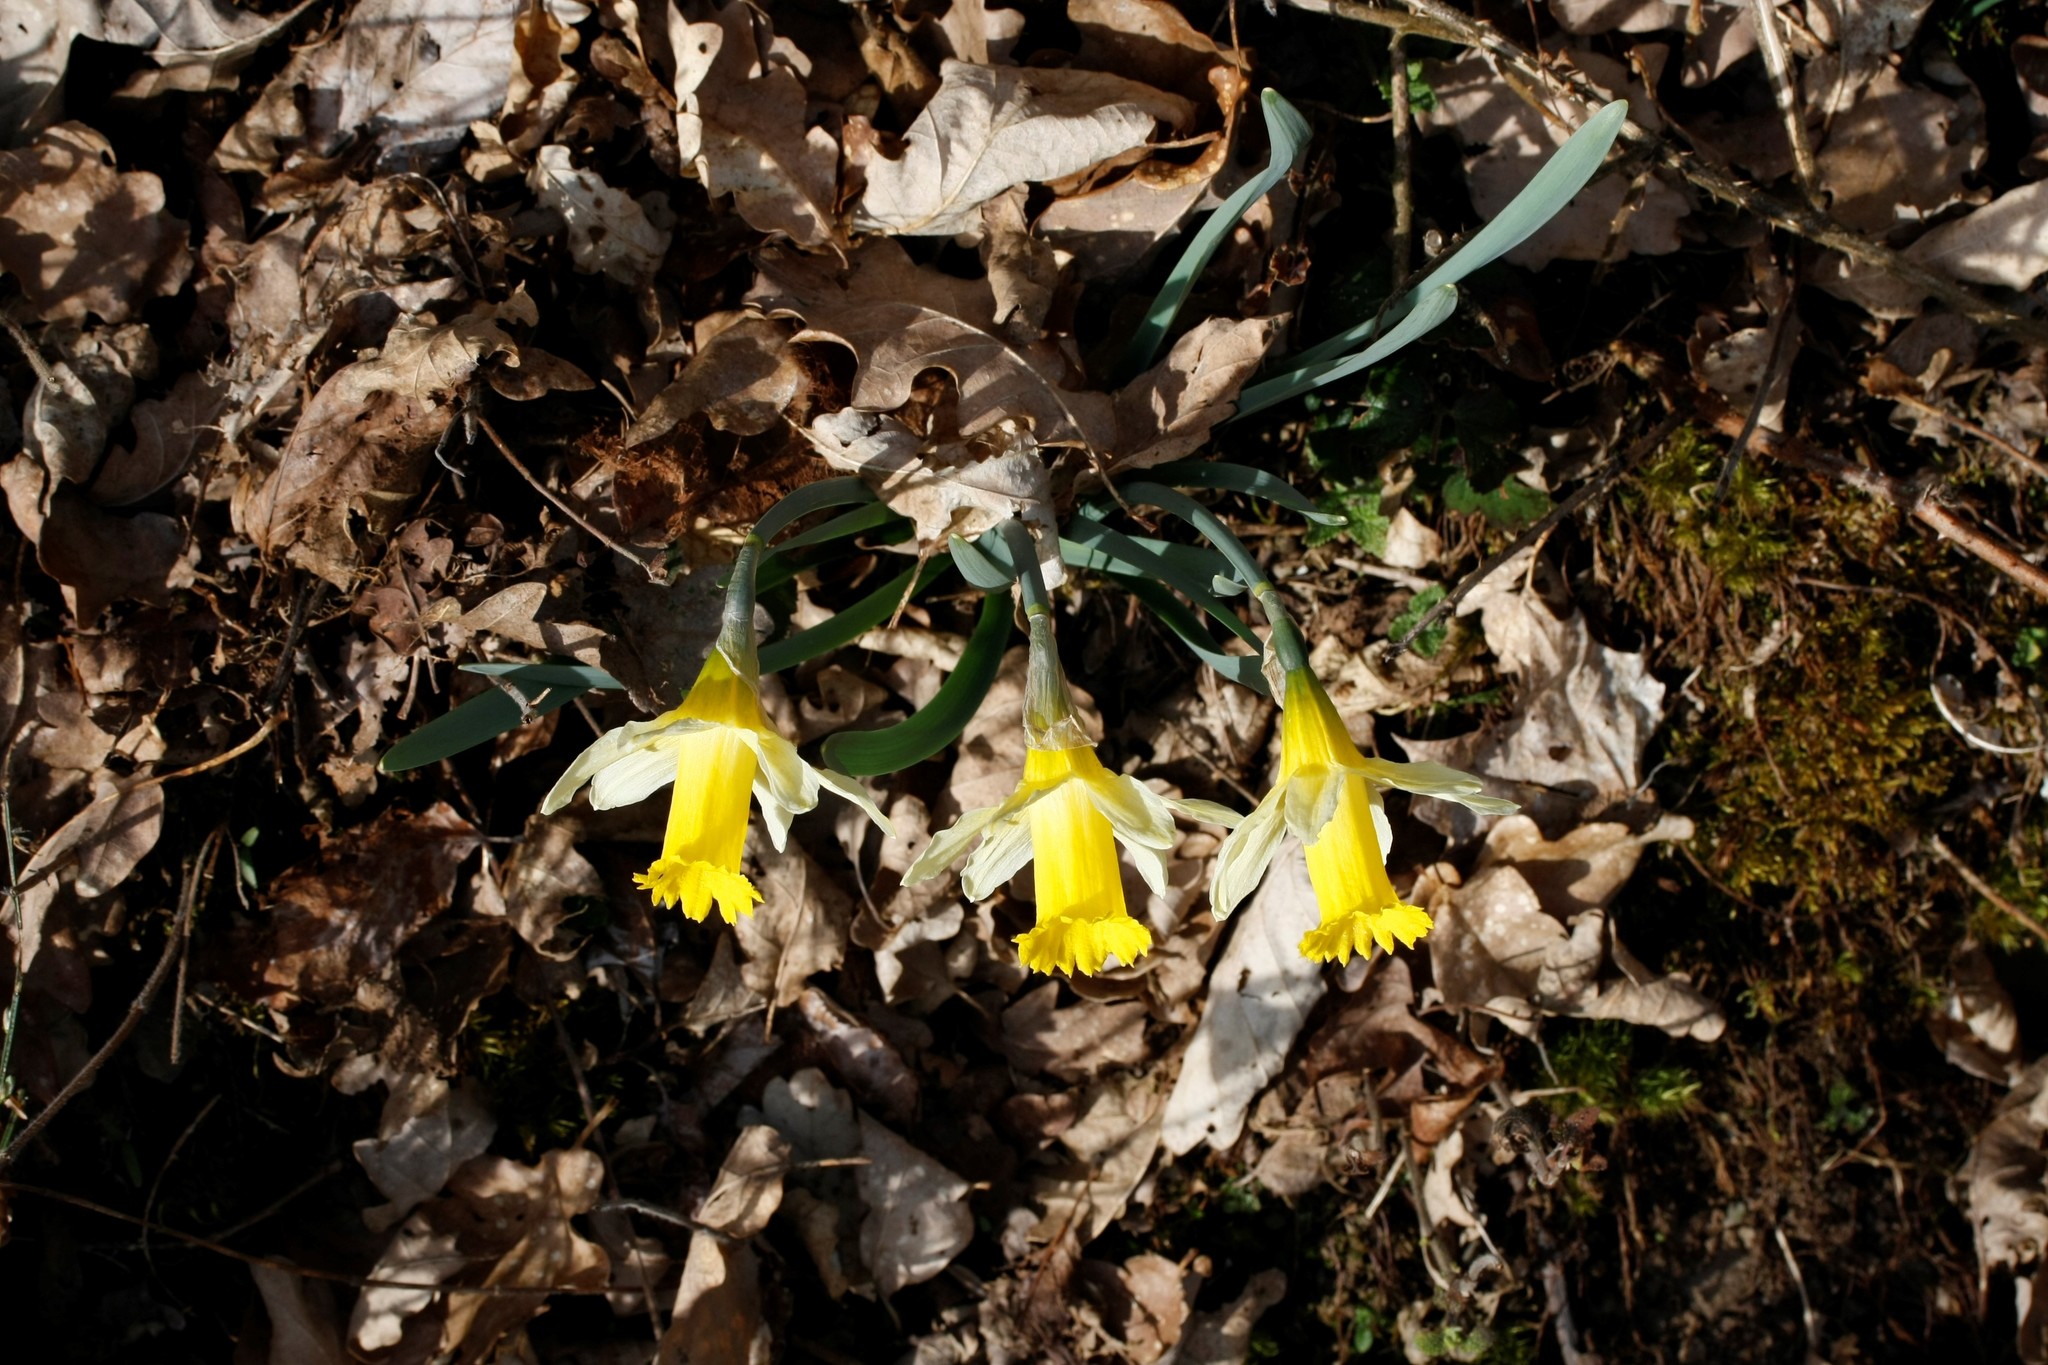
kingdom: Plantae
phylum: Tracheophyta
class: Liliopsida
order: Asparagales
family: Amaryllidaceae
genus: Narcissus
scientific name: Narcissus pseudonarcissus
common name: Daffodil
